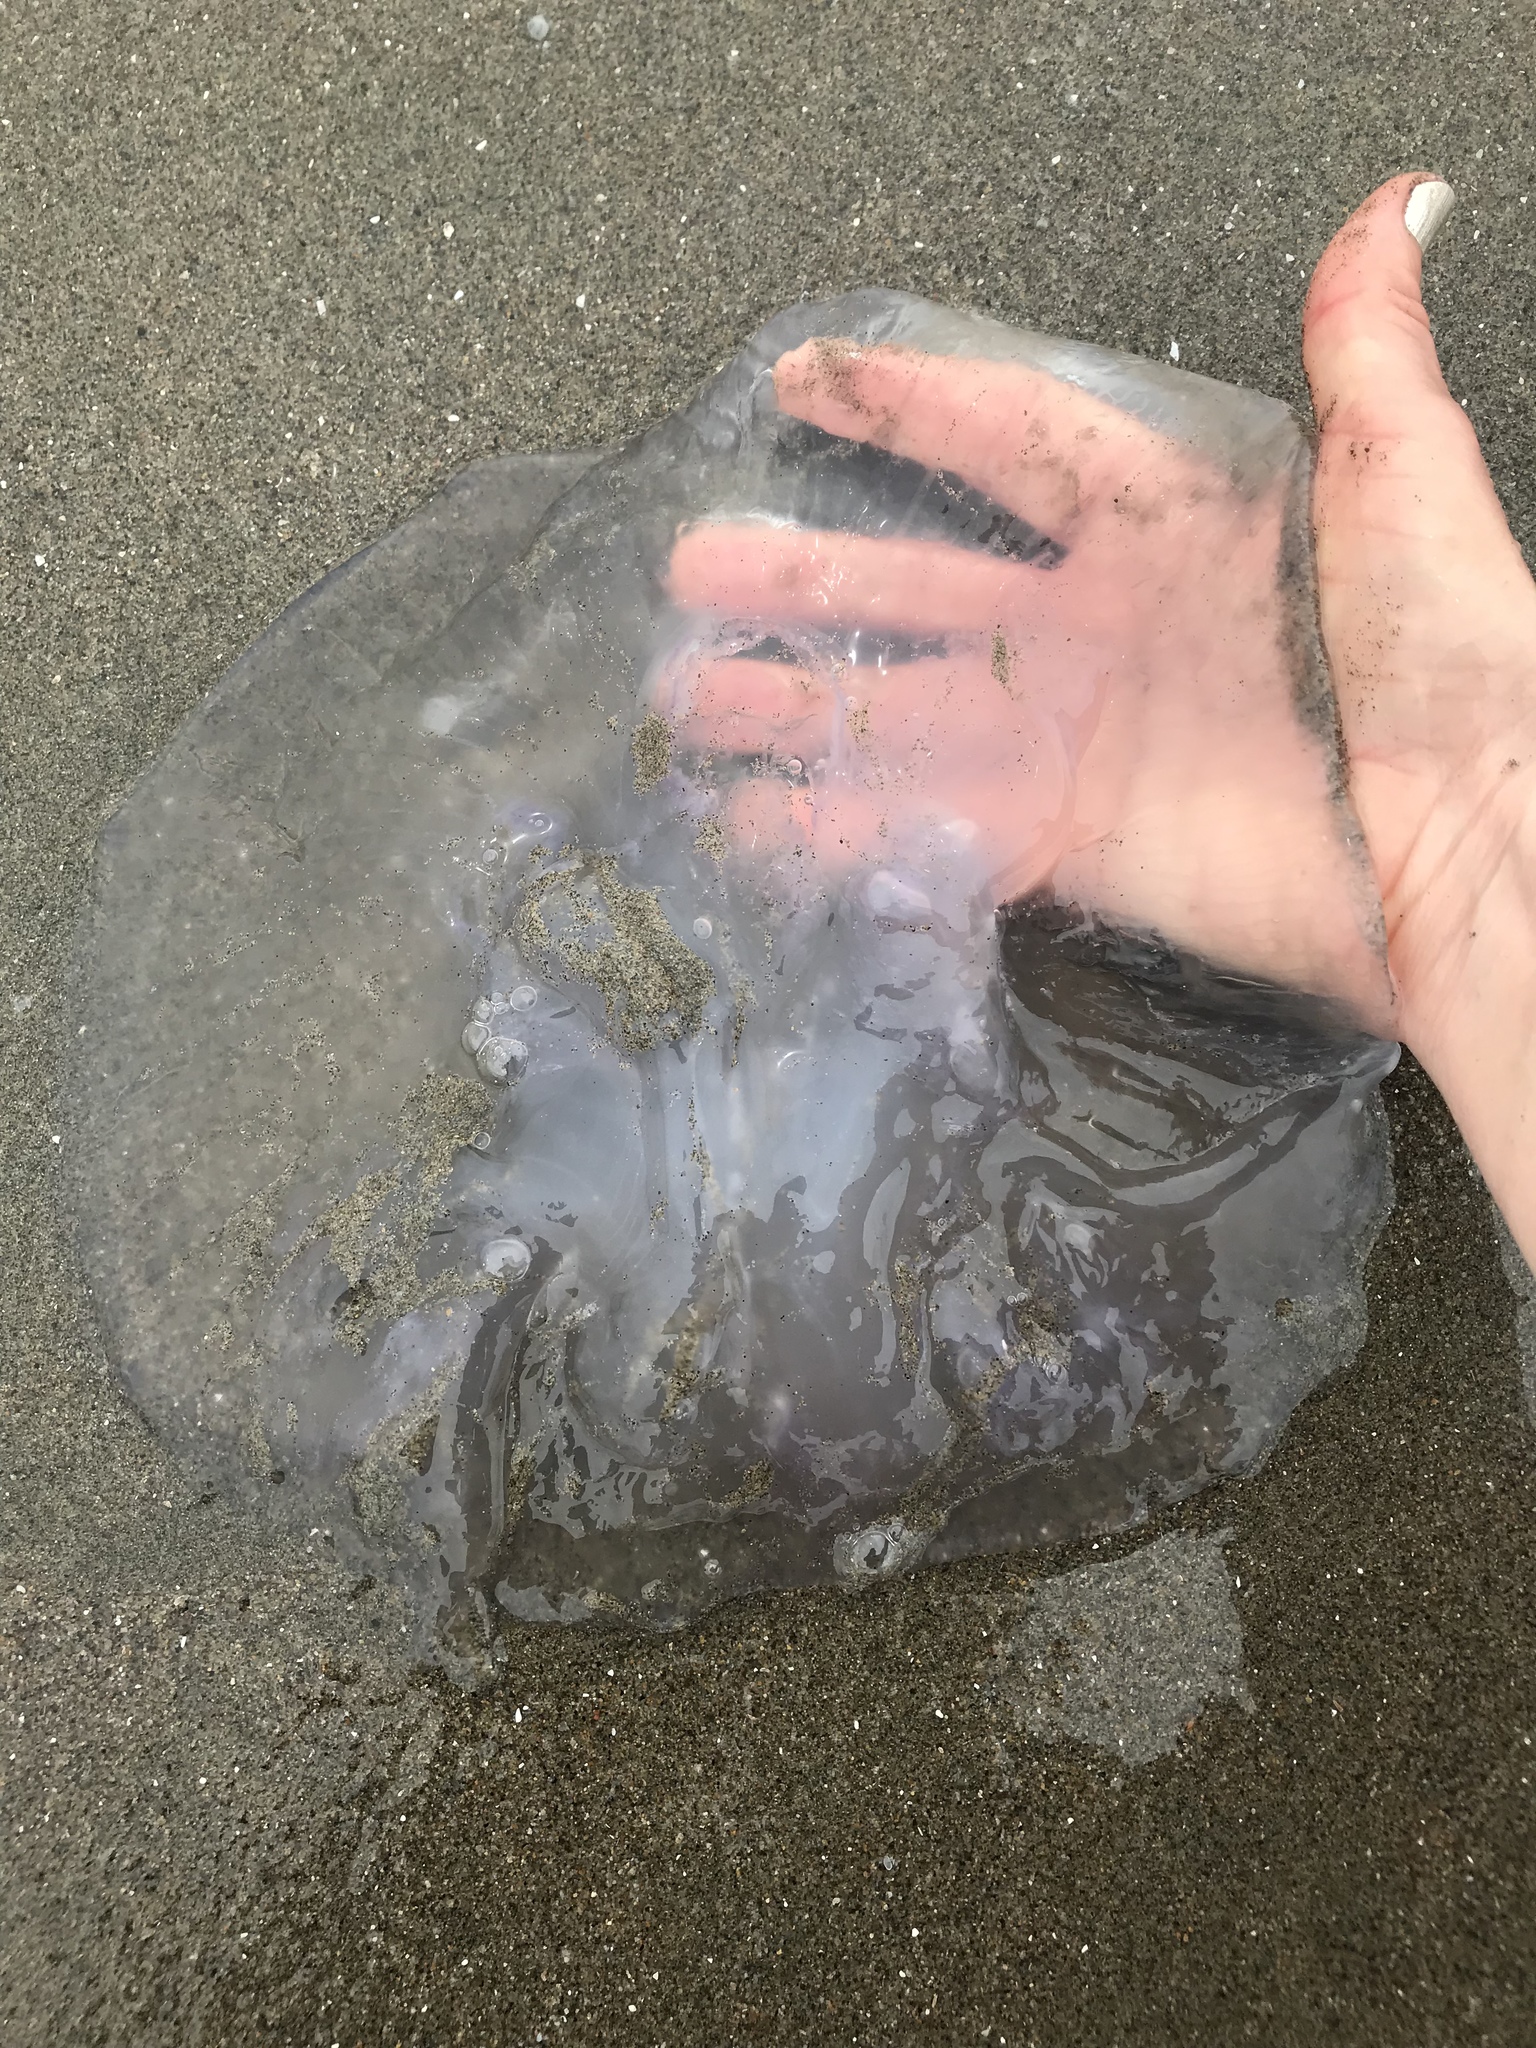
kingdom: Animalia
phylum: Cnidaria
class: Scyphozoa
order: Semaeostomeae
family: Ulmaridae
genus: Aurelia
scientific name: Aurelia labiata
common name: Pacific moon jelly
